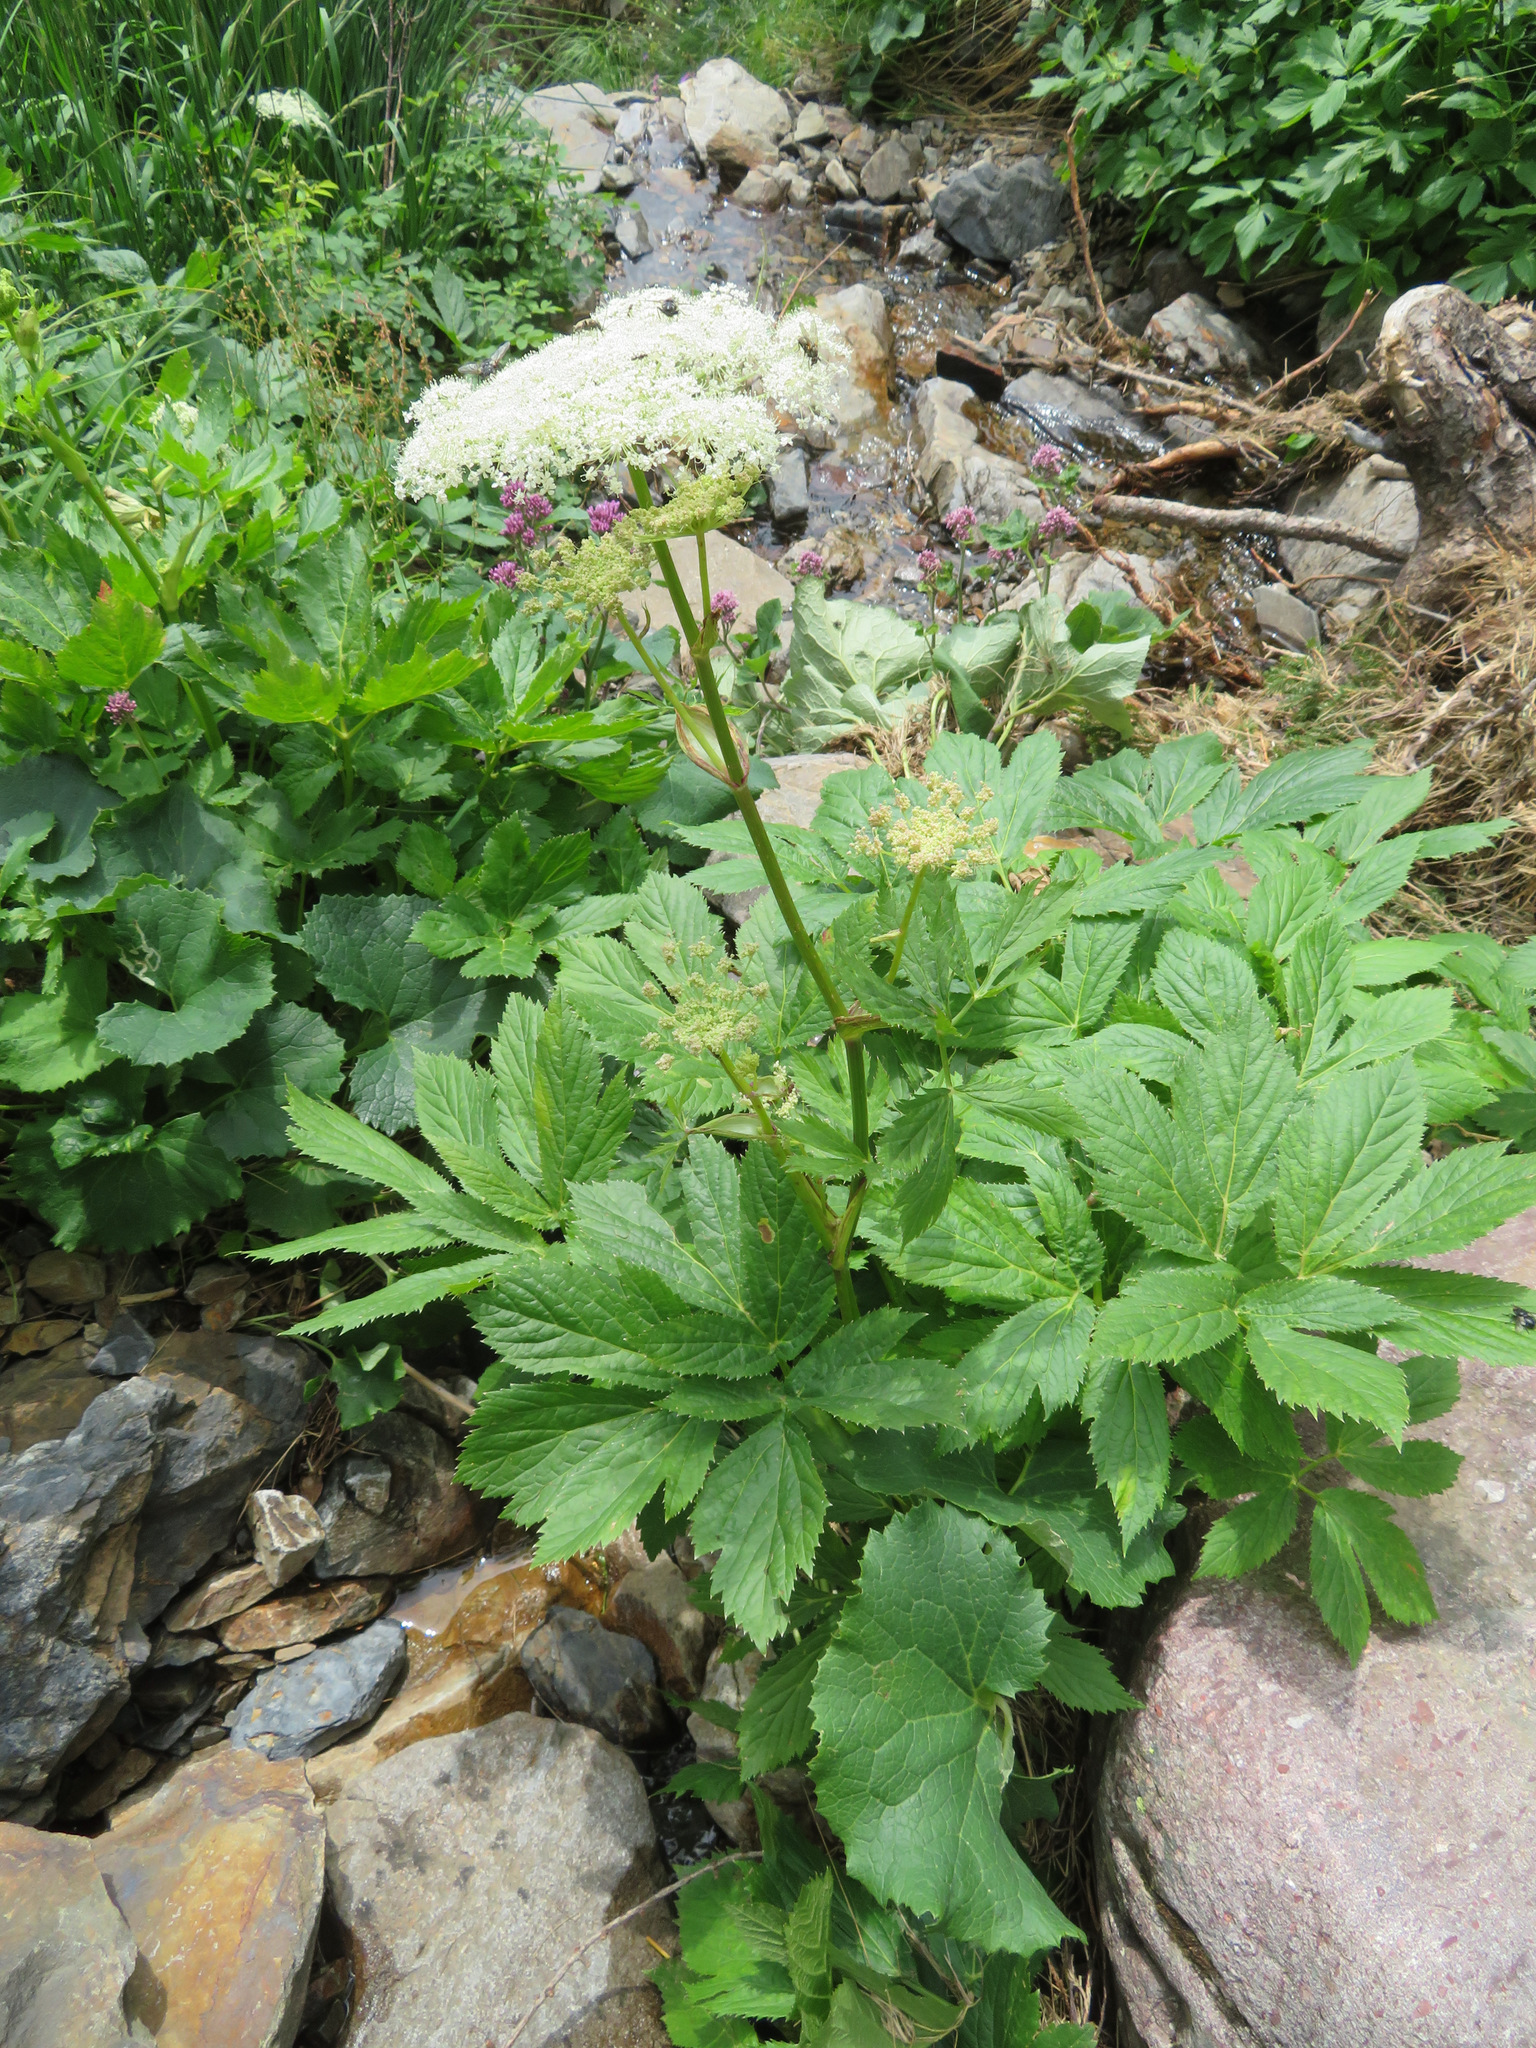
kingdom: Plantae
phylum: Tracheophyta
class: Magnoliopsida
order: Apiales
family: Apiaceae
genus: Imperatoria
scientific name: Imperatoria ostruthium
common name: Masterwort
